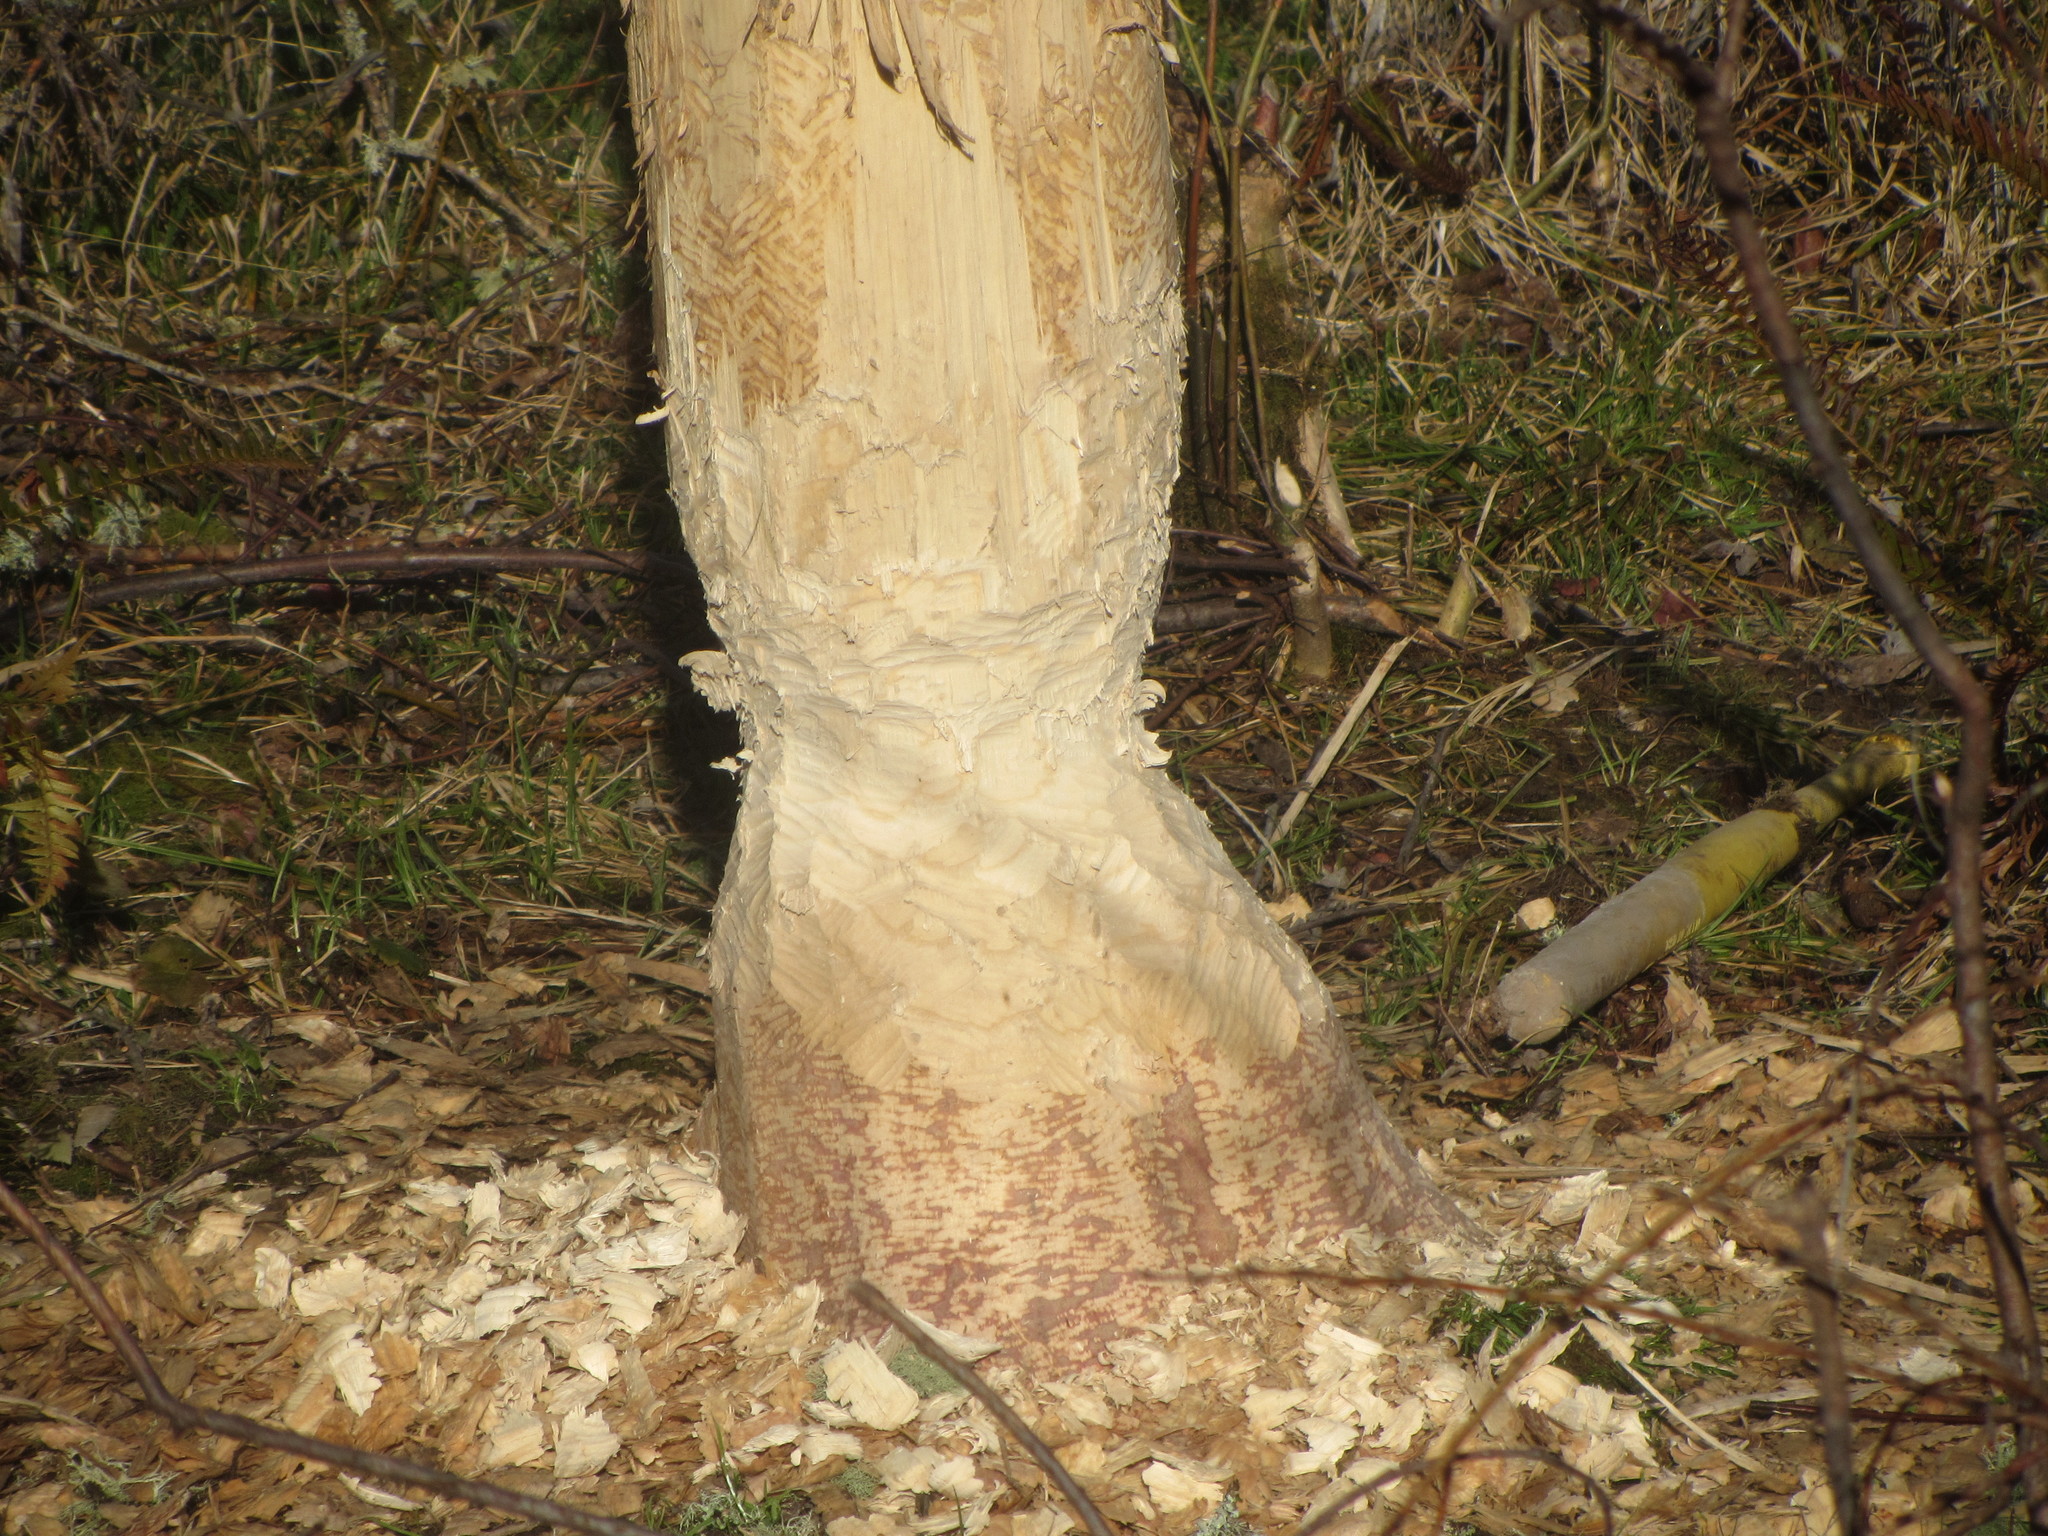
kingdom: Animalia
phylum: Chordata
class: Mammalia
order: Rodentia
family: Castoridae
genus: Castor
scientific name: Castor canadensis
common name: American beaver
